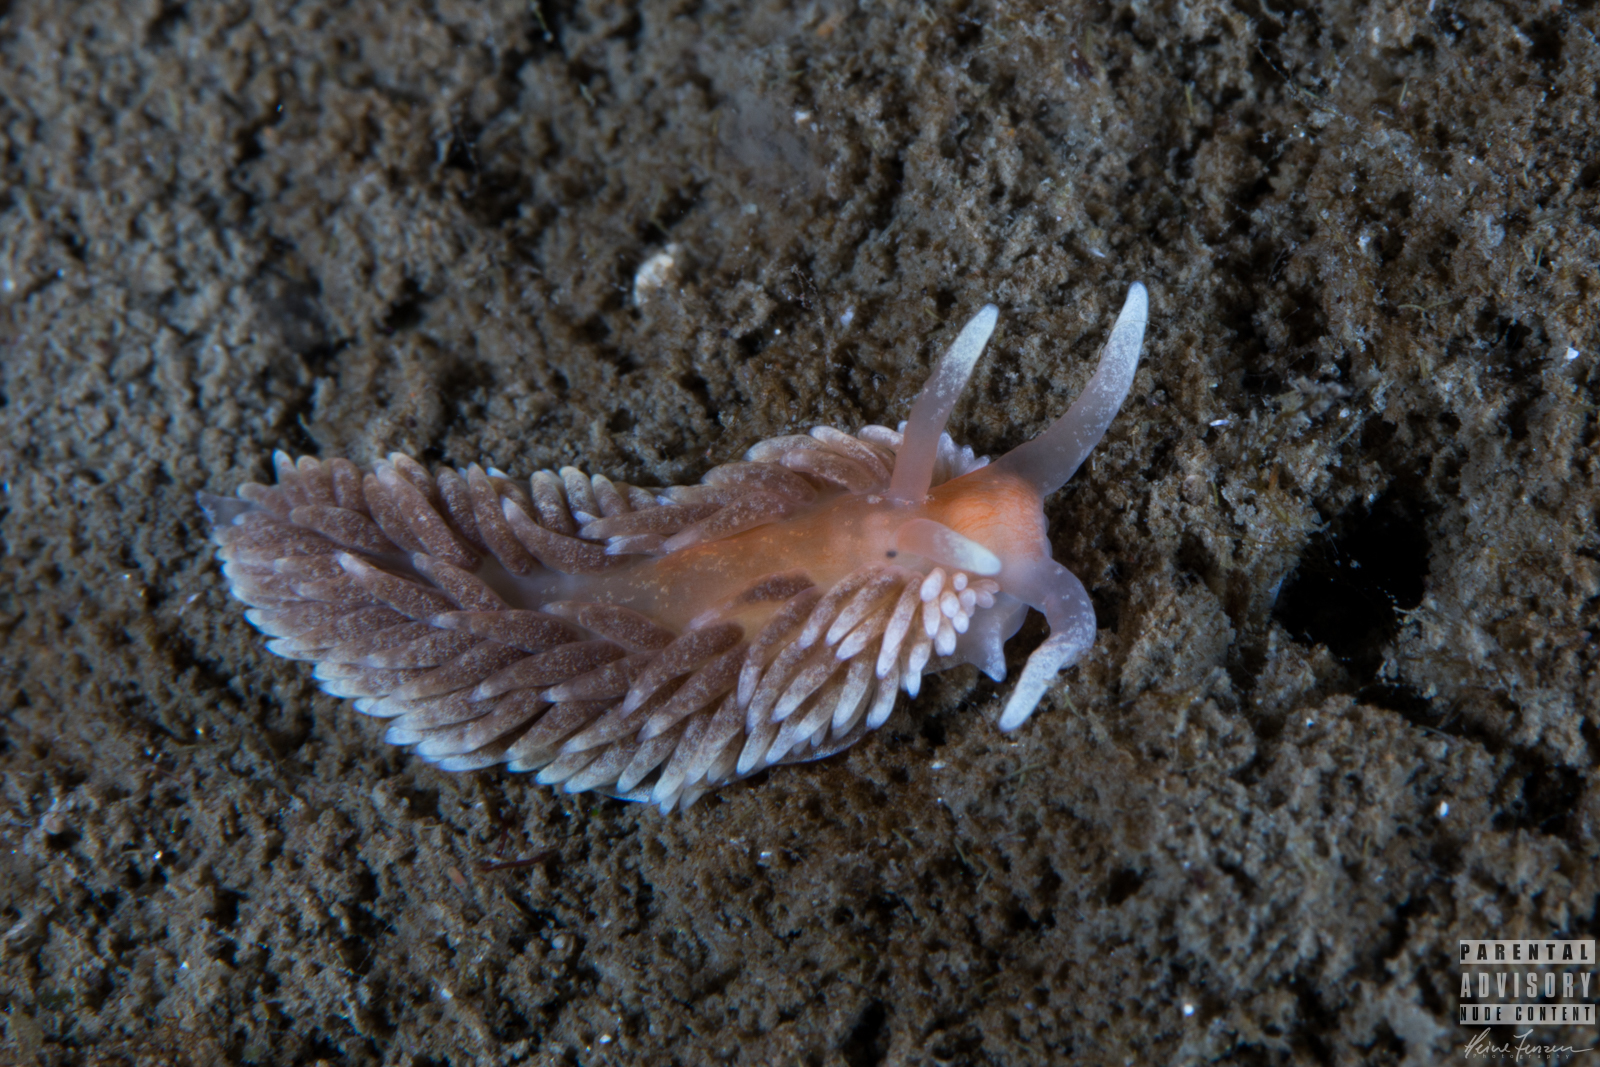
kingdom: Animalia
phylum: Mollusca
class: Gastropoda
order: Nudibranchia
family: Aeolidiidae
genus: Aeolidiella
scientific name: Aeolidiella glauca
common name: Orange-brown aeolid
